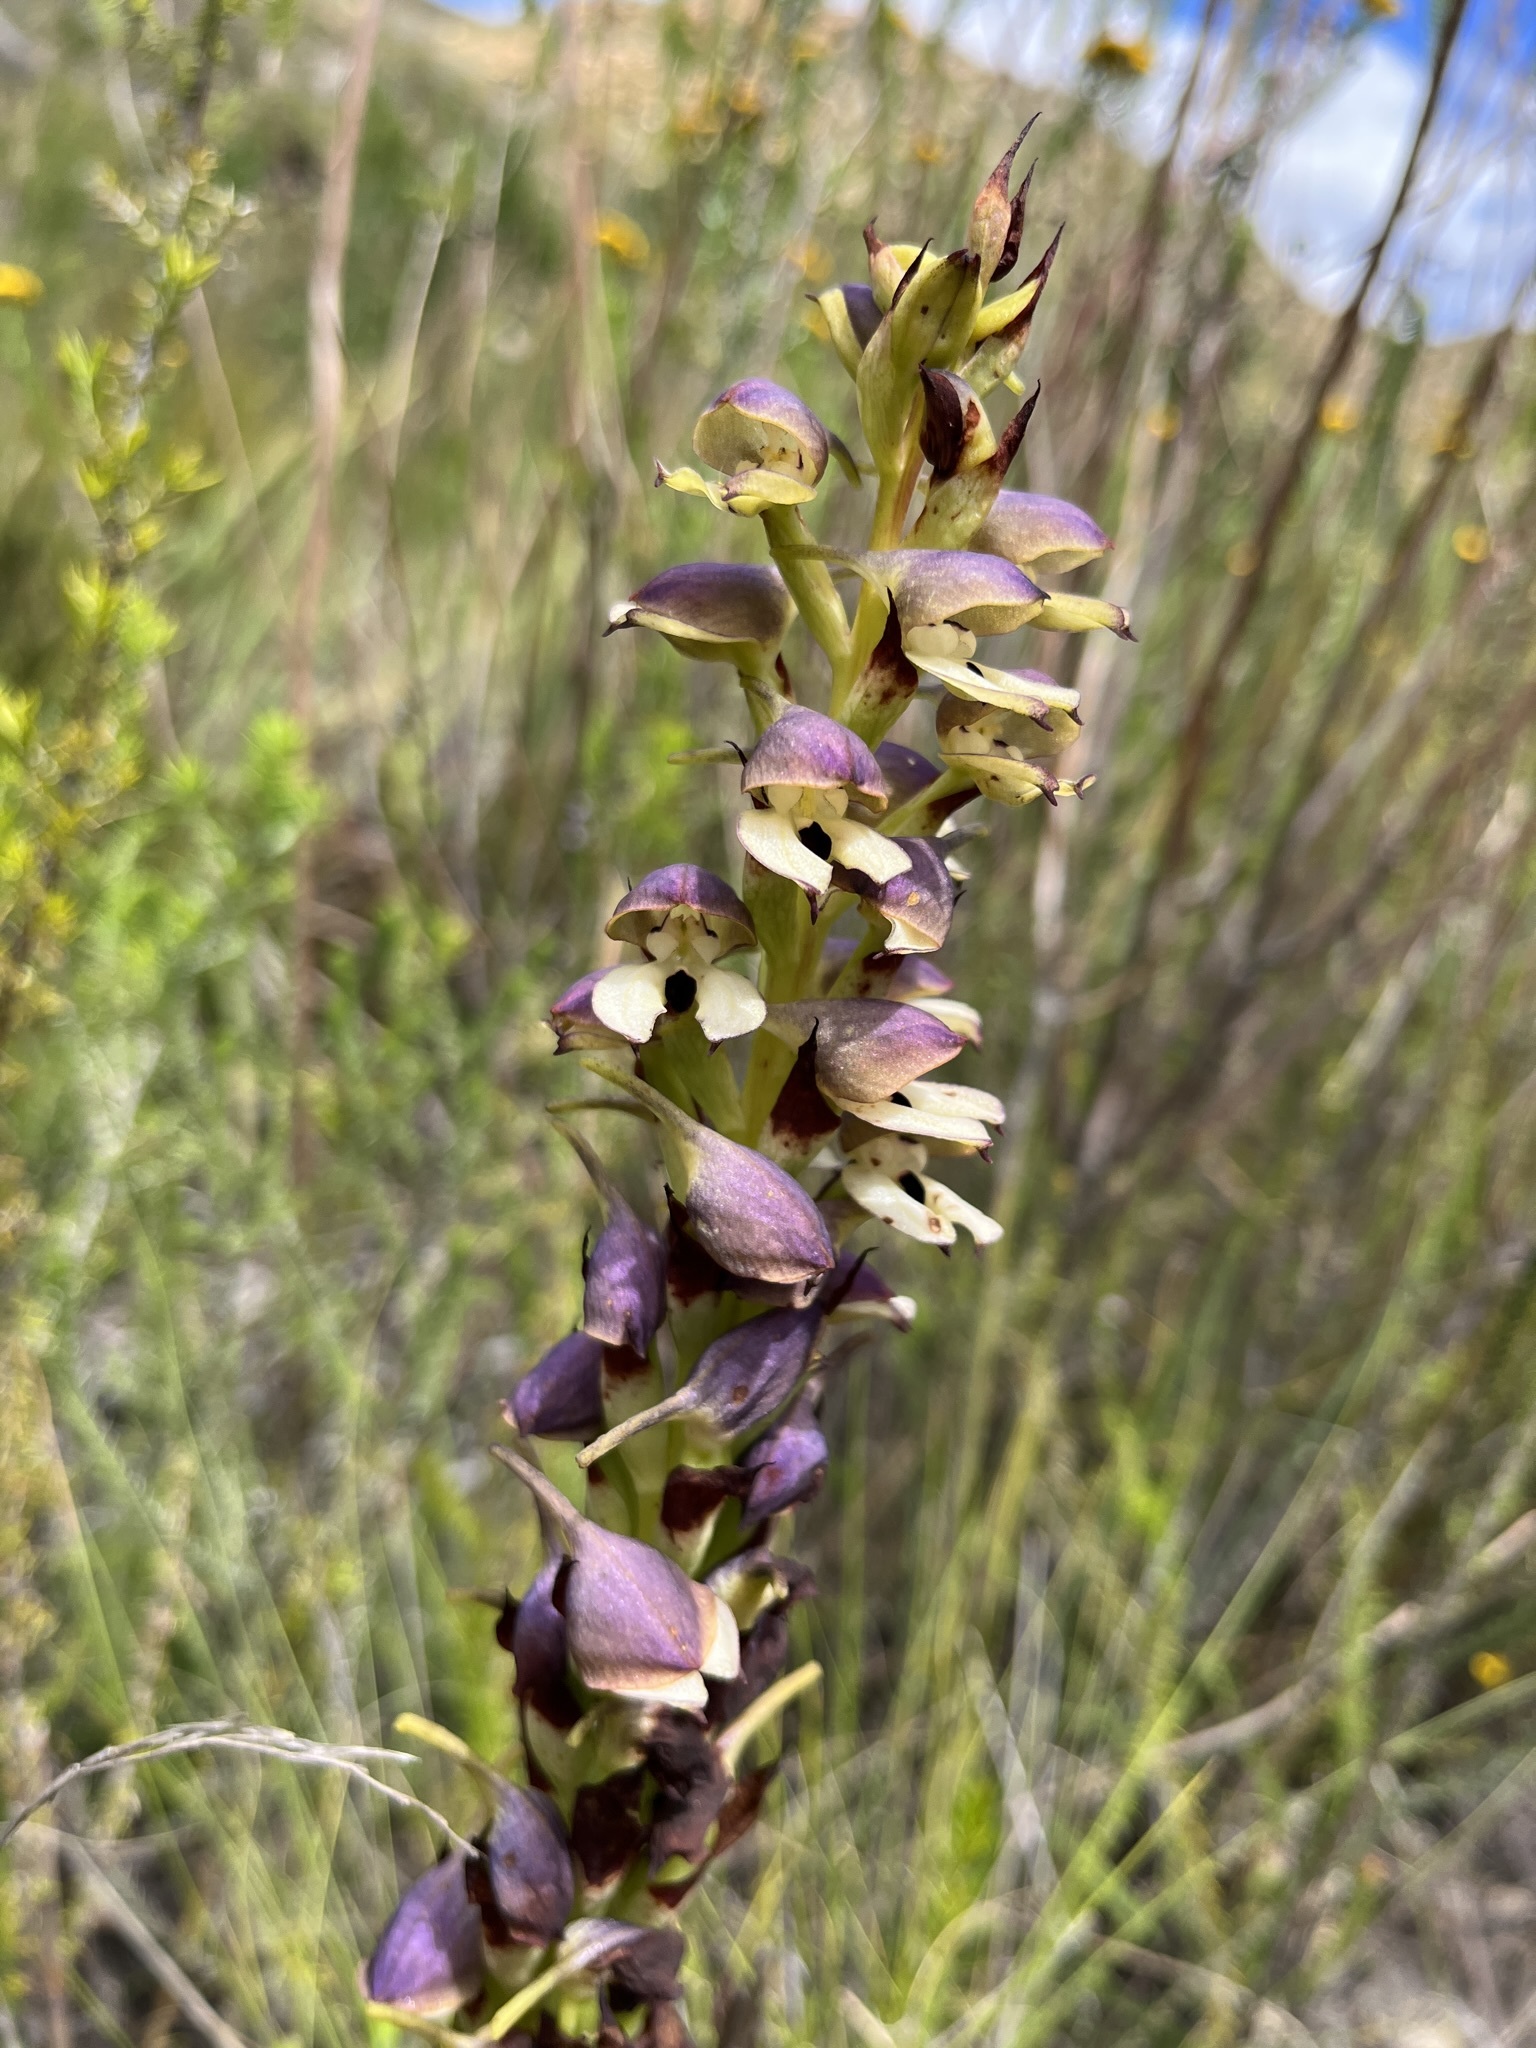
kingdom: Plantae
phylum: Tracheophyta
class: Liliopsida
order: Asparagales
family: Orchidaceae
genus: Disa
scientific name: Disa cornuta
